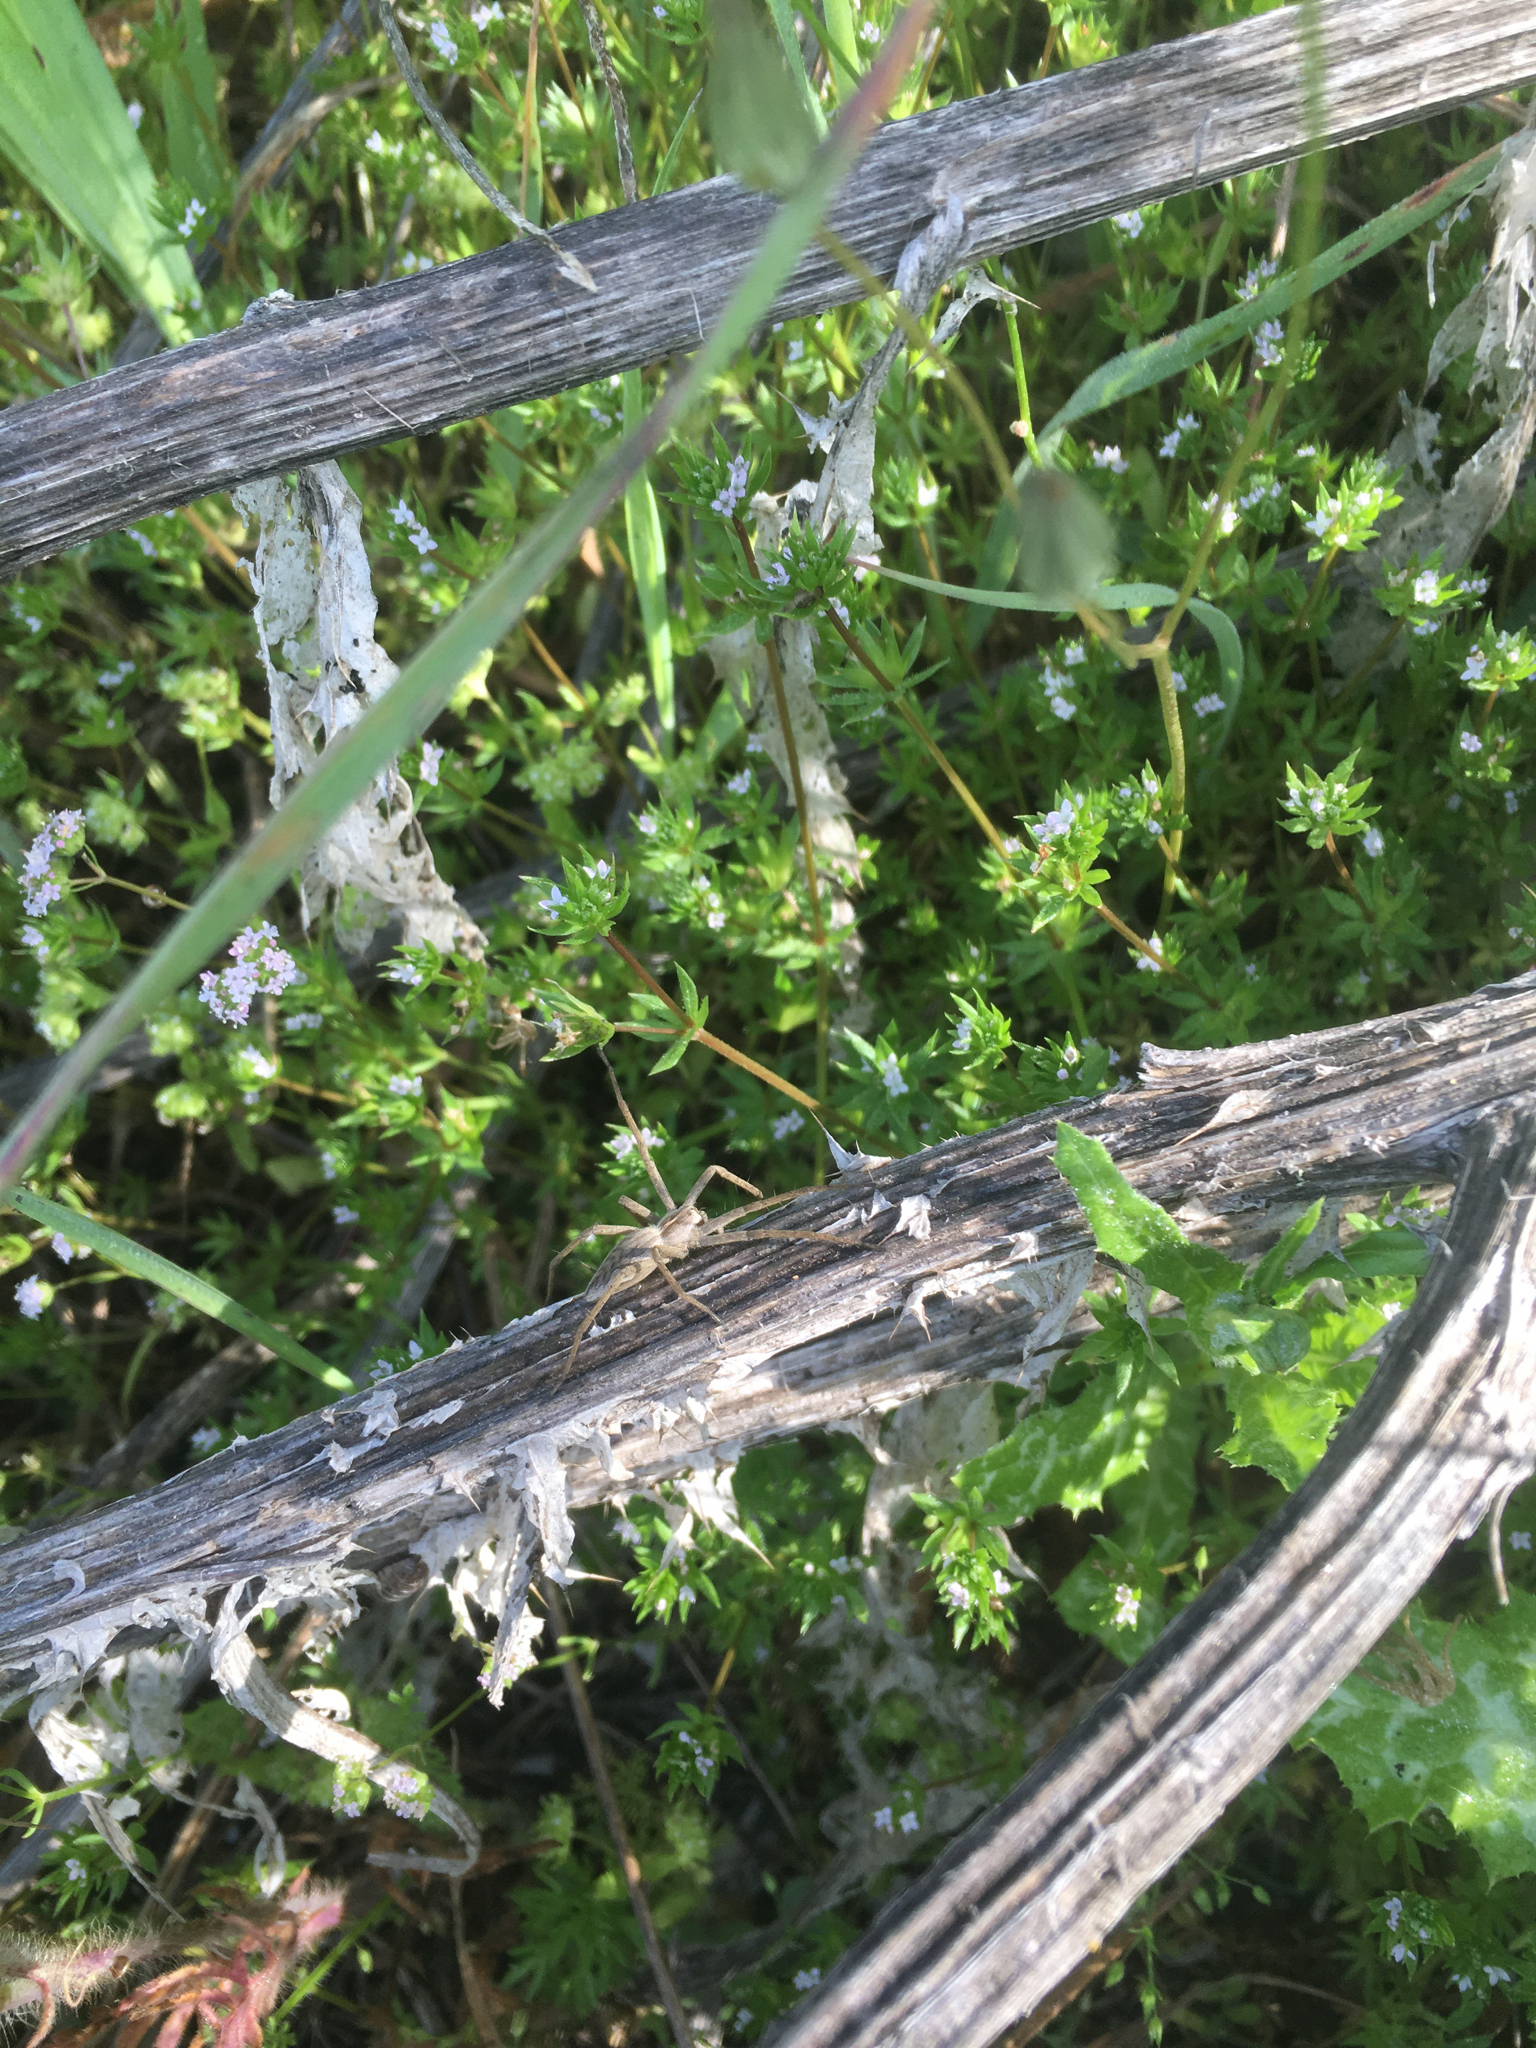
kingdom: Animalia
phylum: Arthropoda
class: Arachnida
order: Araneae
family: Pisauridae
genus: Pisaura
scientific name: Pisaura mirabilis
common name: Tent spider
